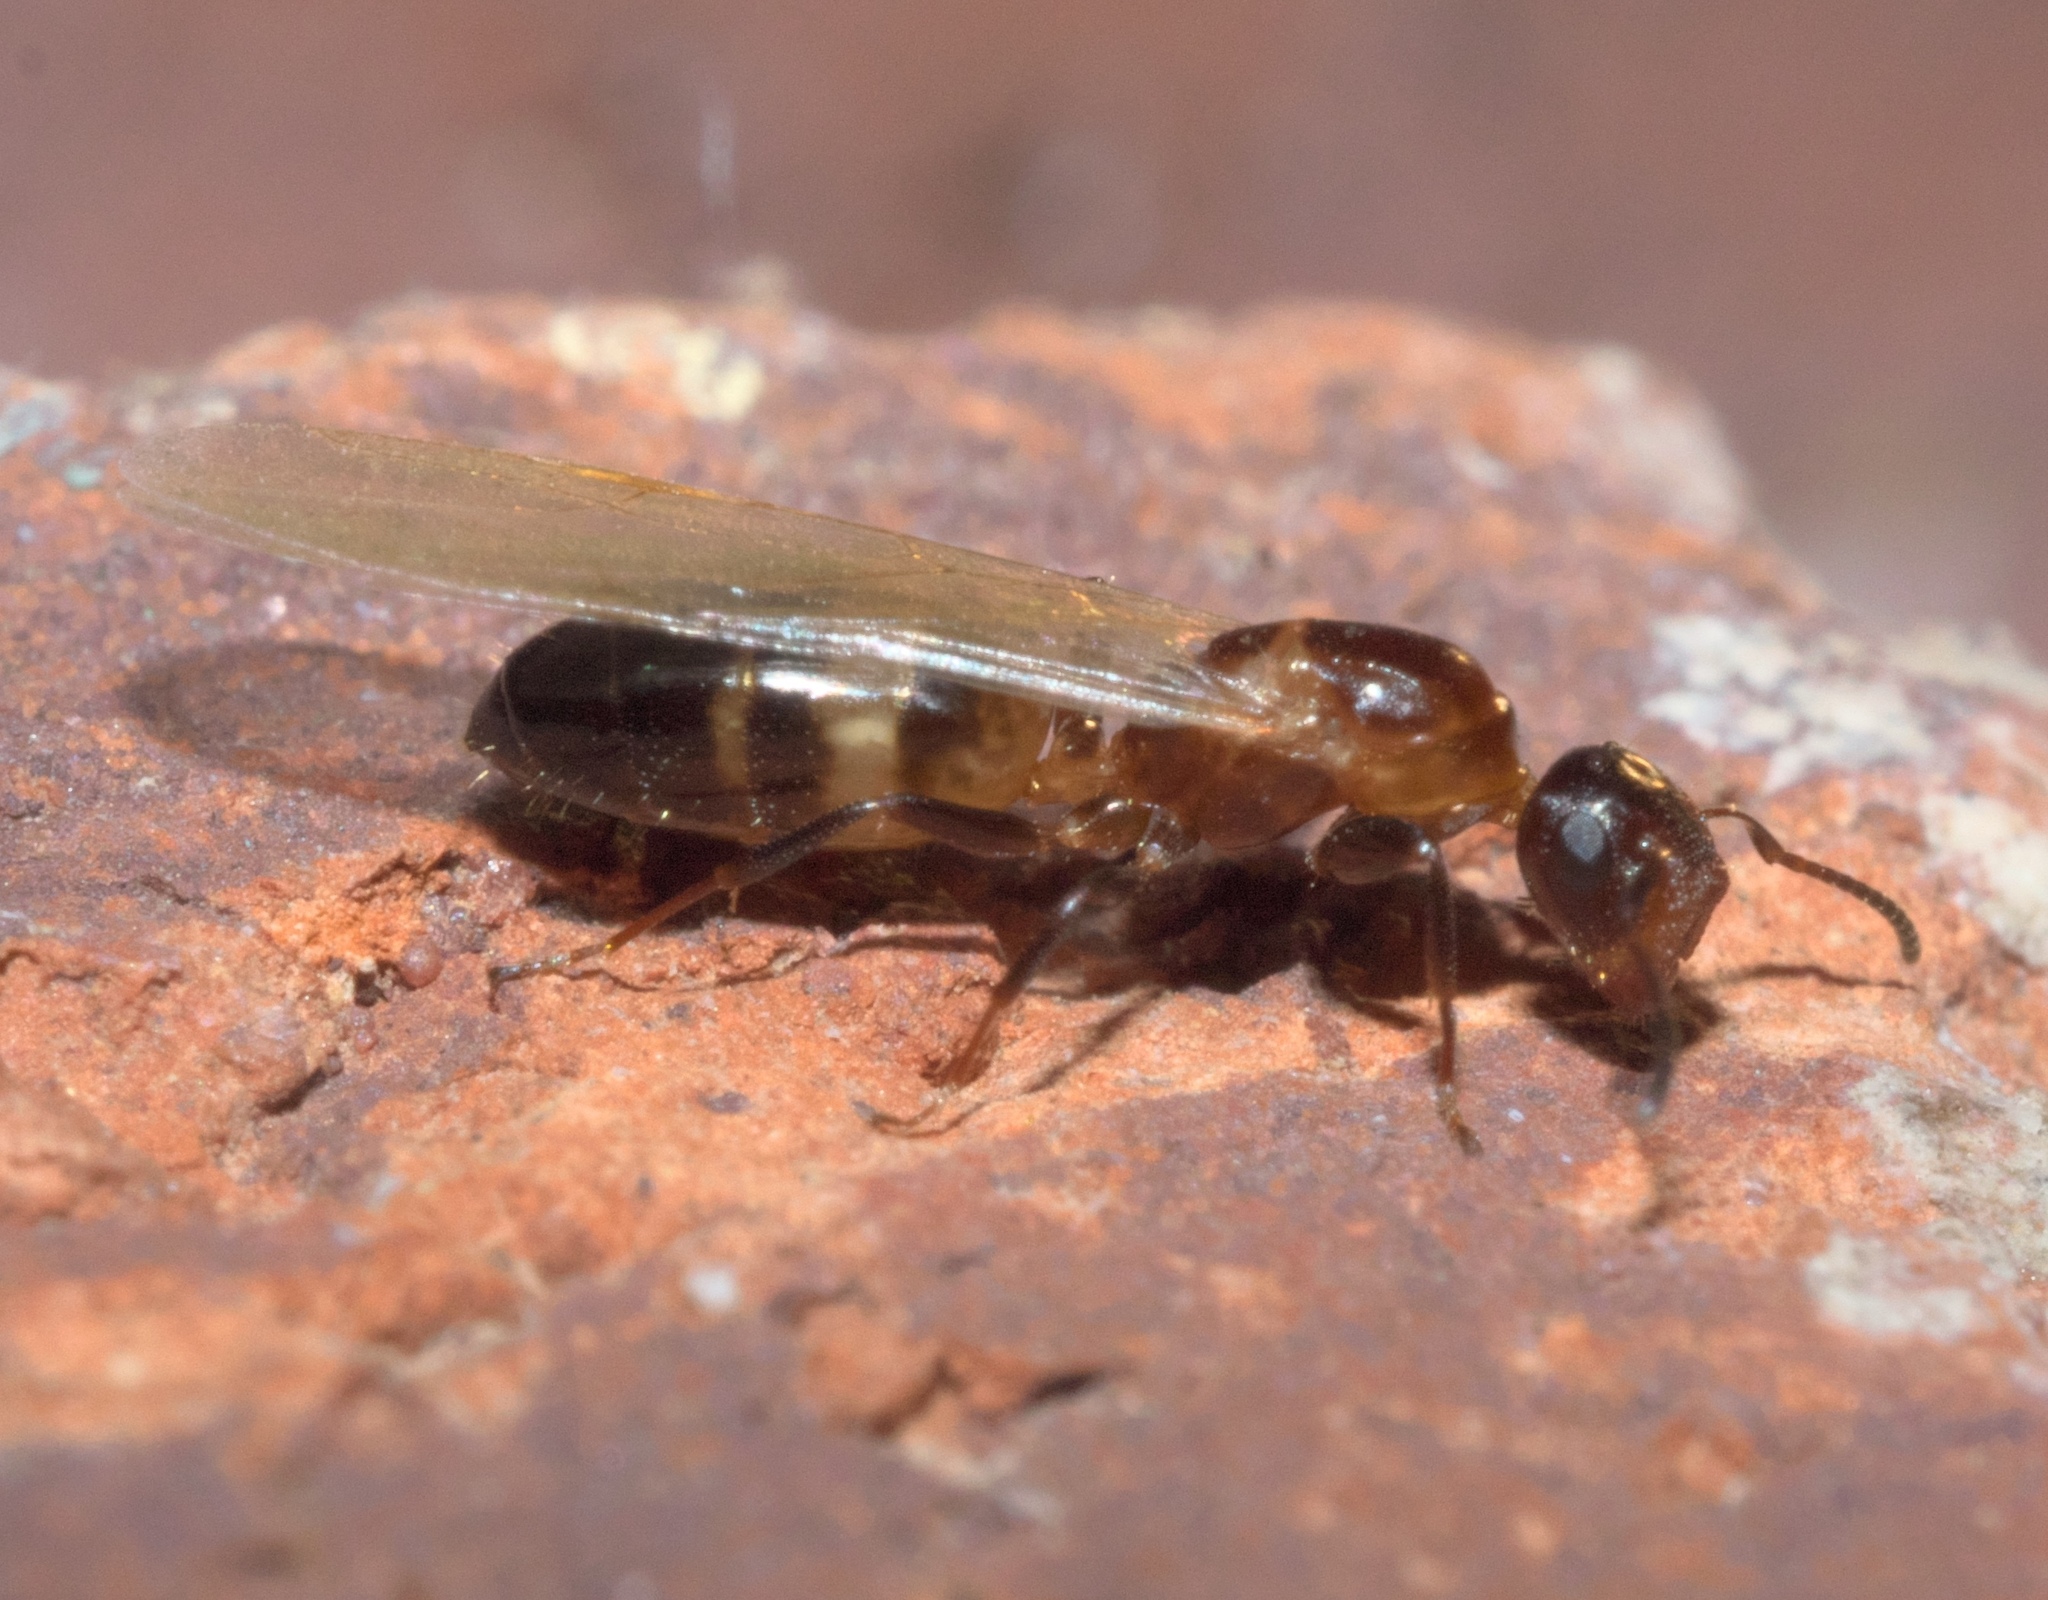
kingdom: Animalia
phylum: Arthropoda
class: Insecta
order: Hymenoptera
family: Formicidae
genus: Colobopsis
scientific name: Colobopsis impressa
